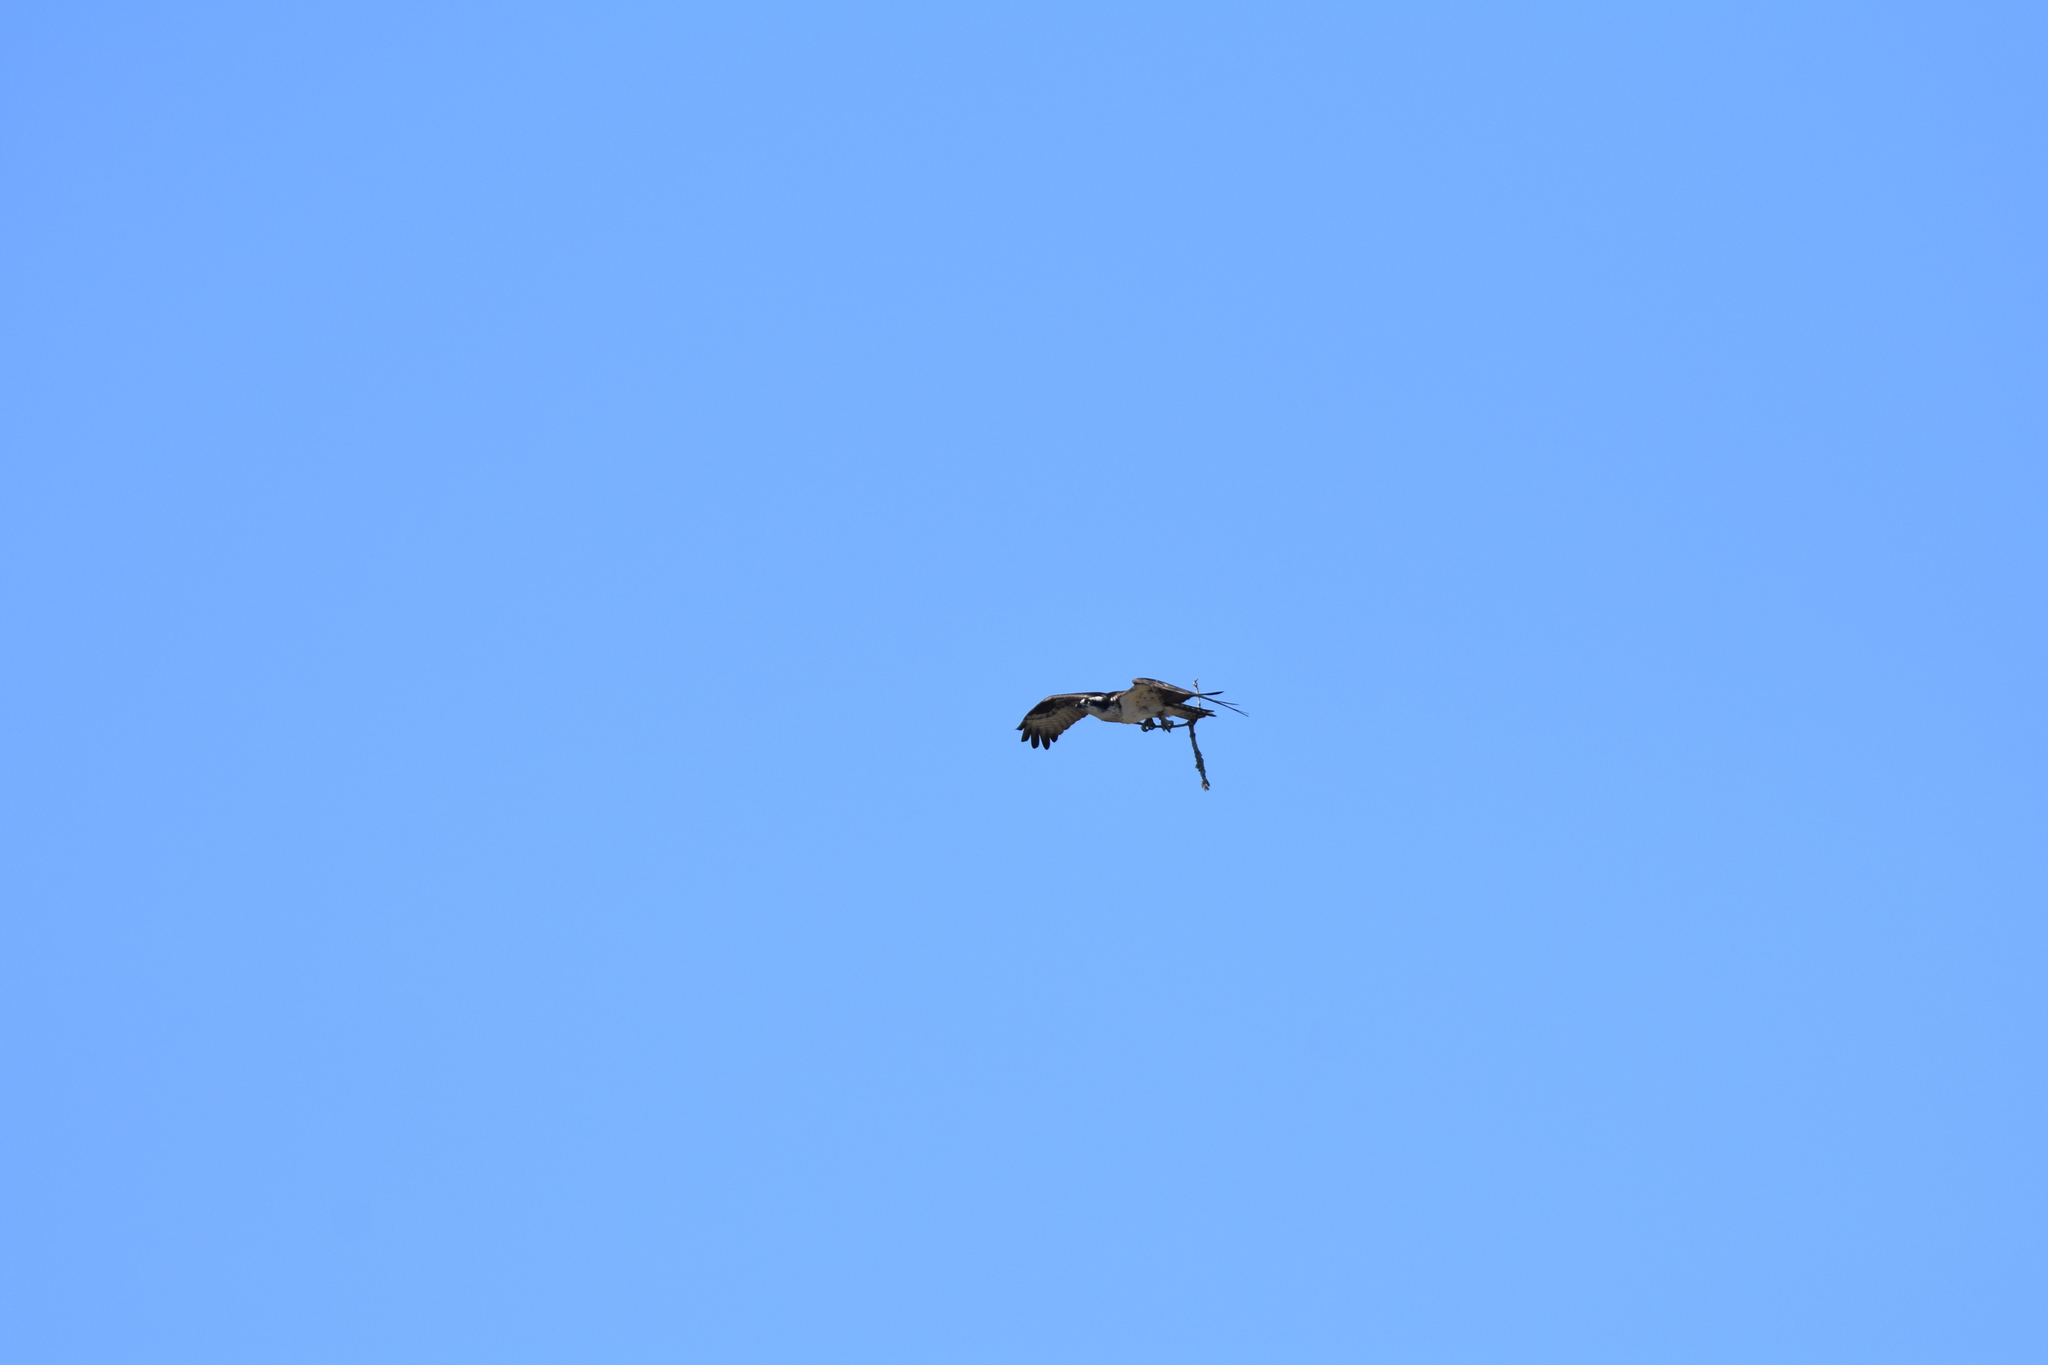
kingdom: Animalia
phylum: Chordata
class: Aves
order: Accipitriformes
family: Pandionidae
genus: Pandion
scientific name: Pandion haliaetus
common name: Osprey
